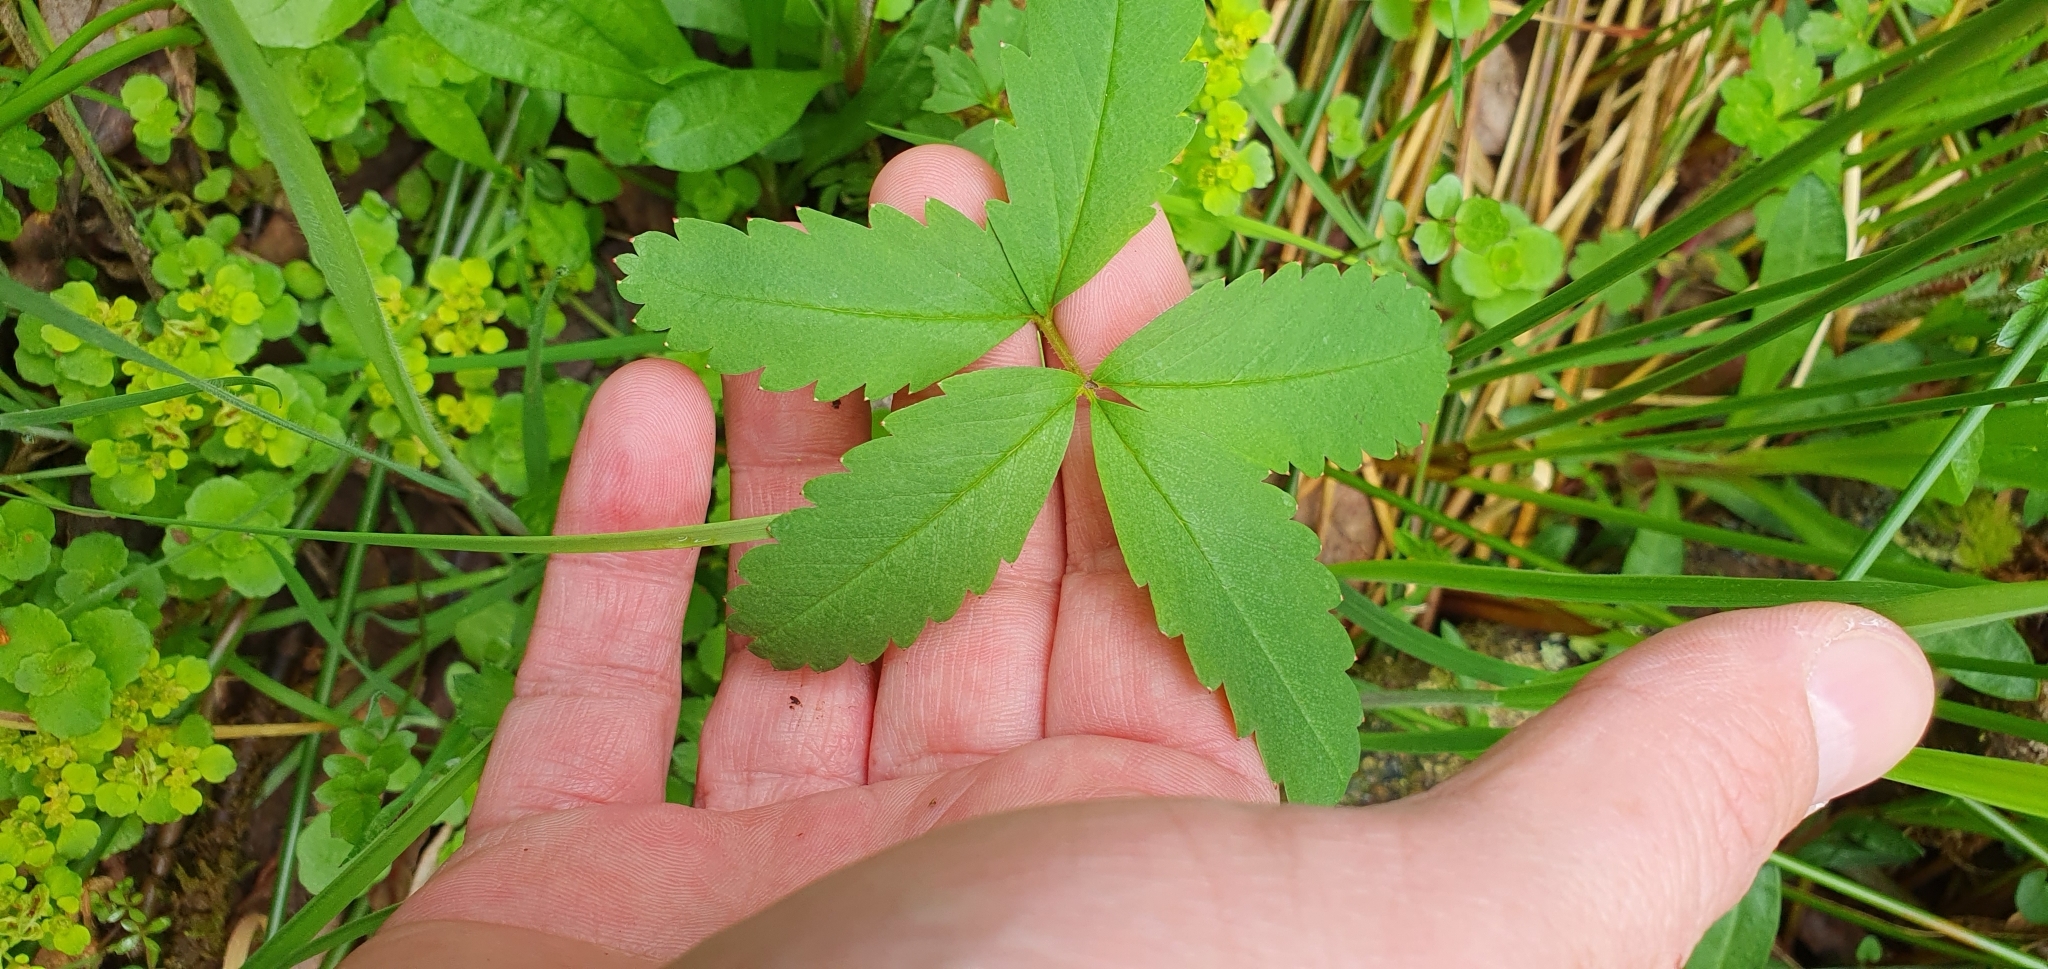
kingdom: Plantae
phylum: Tracheophyta
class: Magnoliopsida
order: Rosales
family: Rosaceae
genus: Comarum
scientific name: Comarum palustre
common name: Marsh cinquefoil
